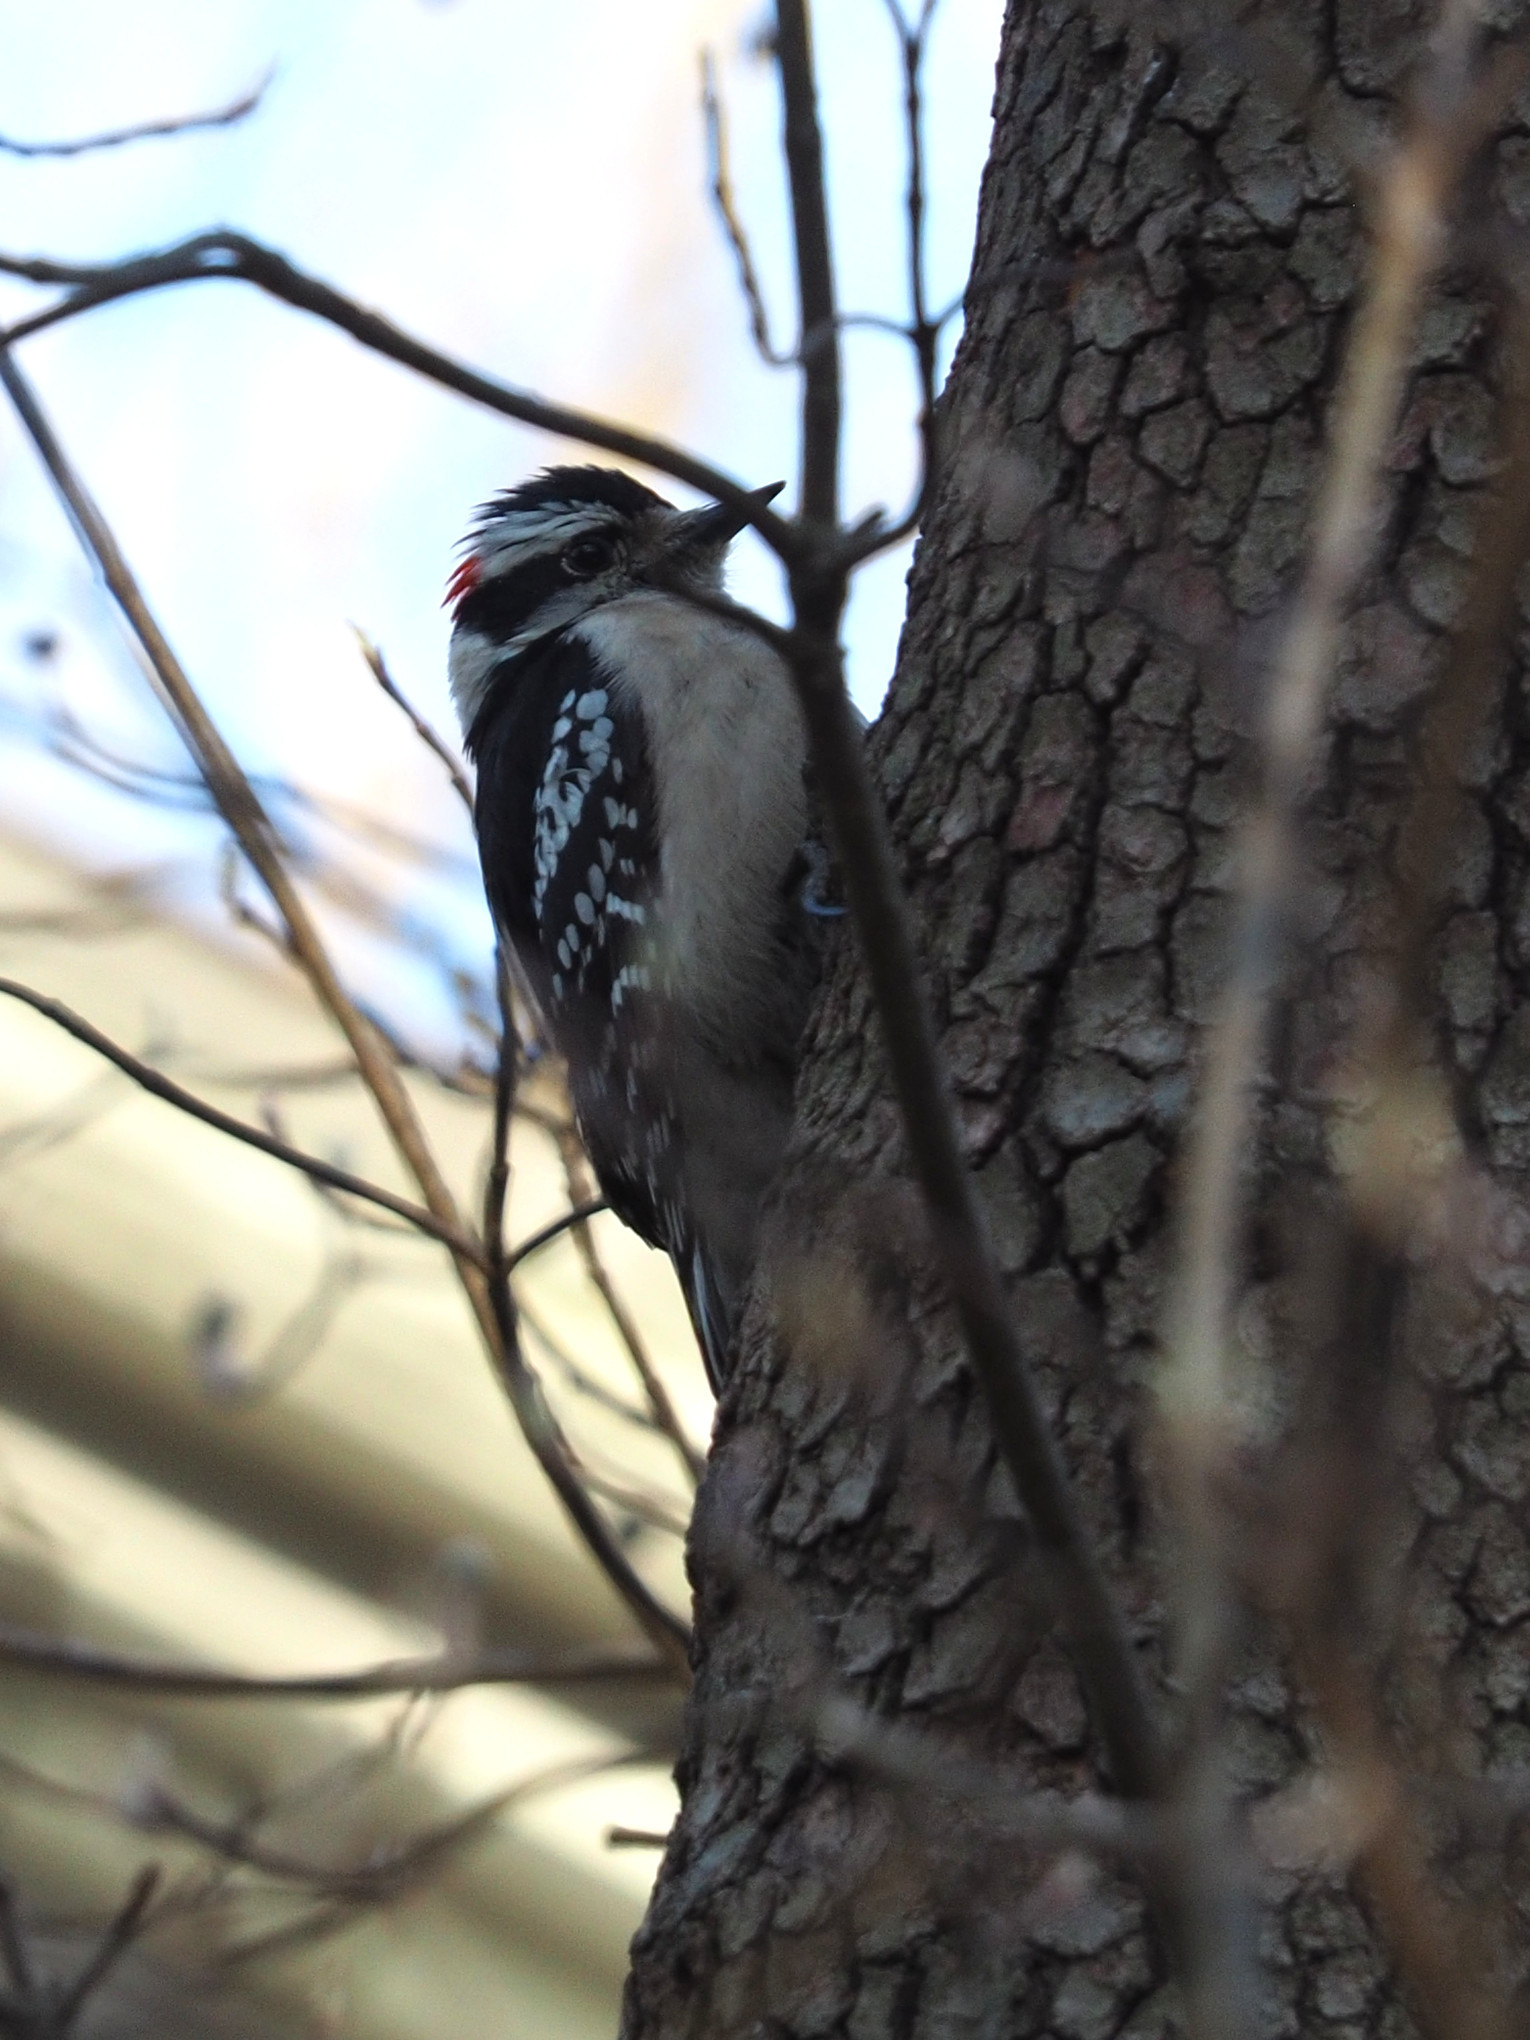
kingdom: Animalia
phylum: Chordata
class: Aves
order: Piciformes
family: Picidae
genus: Dryobates
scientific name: Dryobates pubescens
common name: Downy woodpecker
